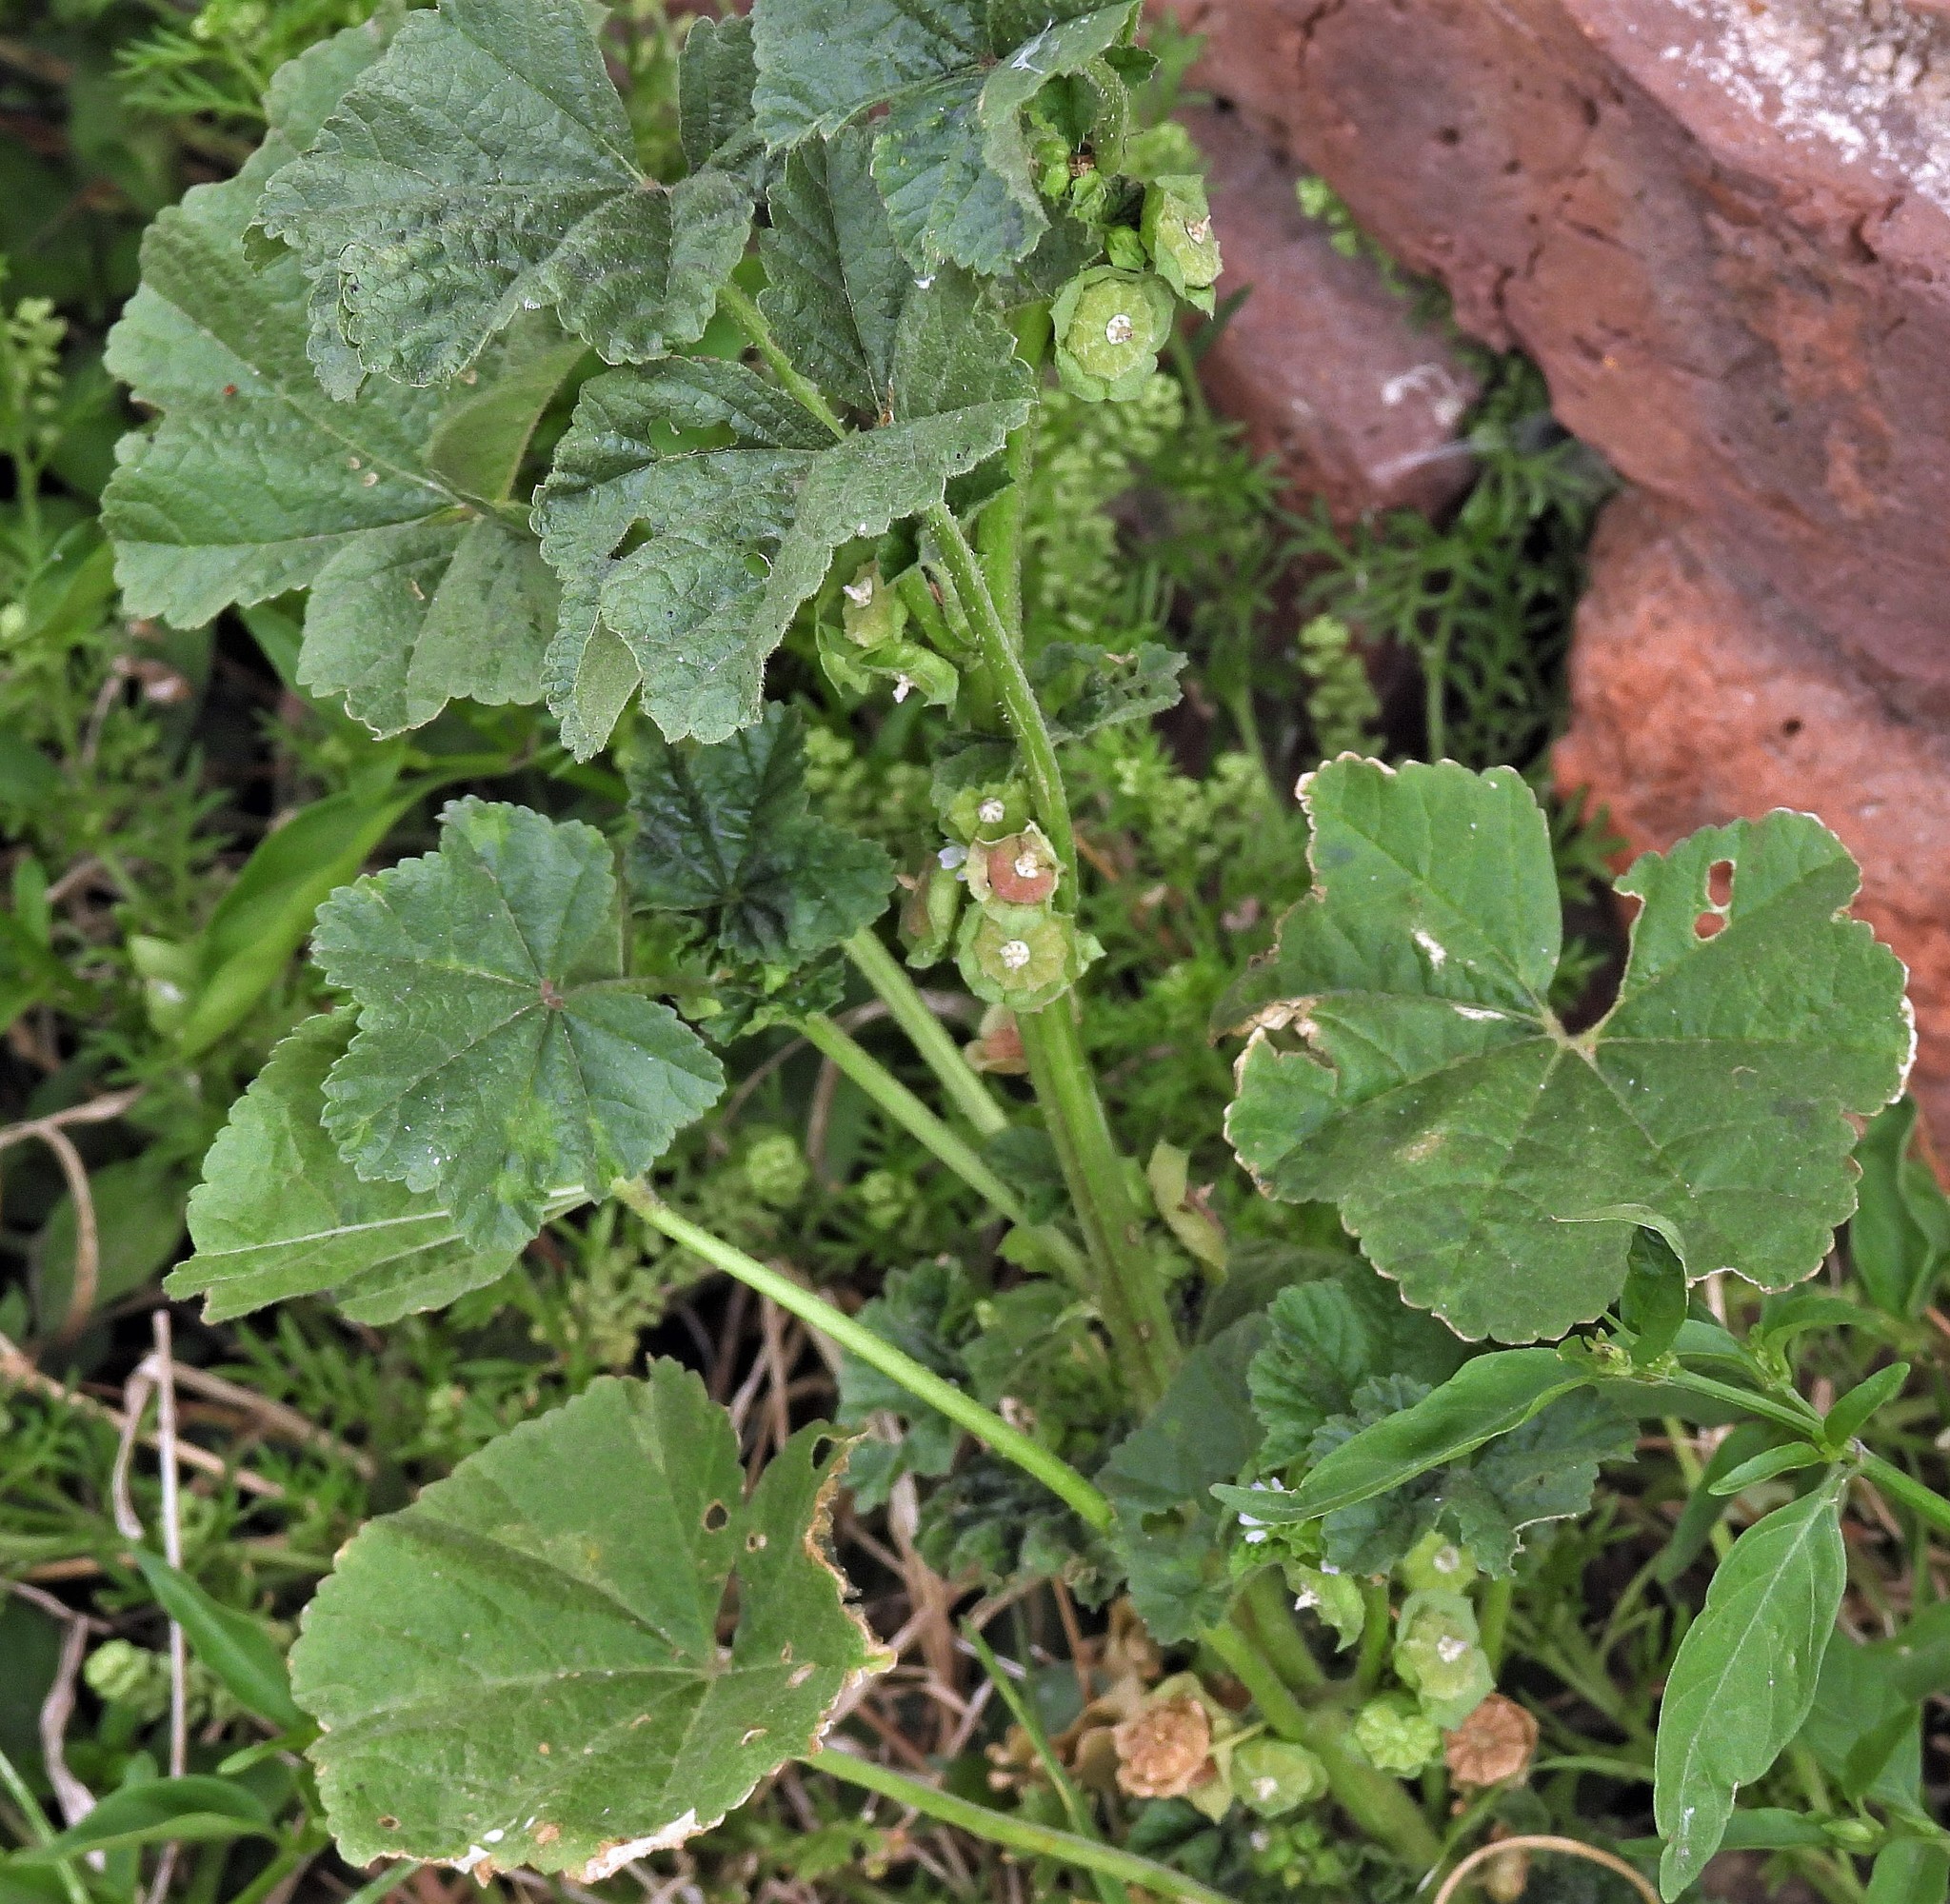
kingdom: Plantae
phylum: Tracheophyta
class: Magnoliopsida
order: Malvales
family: Malvaceae
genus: Malva
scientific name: Malva parviflora
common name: Least mallow
